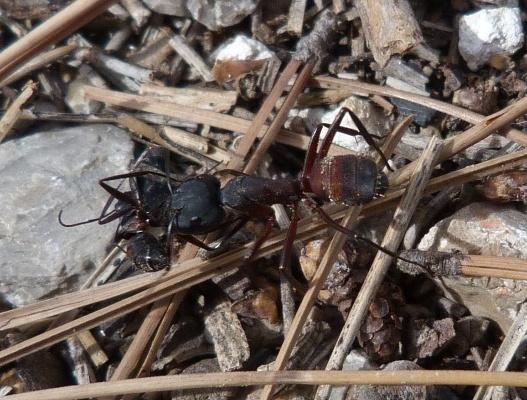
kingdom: Animalia
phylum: Arthropoda
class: Insecta
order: Hymenoptera
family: Formicidae
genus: Camponotus
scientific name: Camponotus cruentatus
